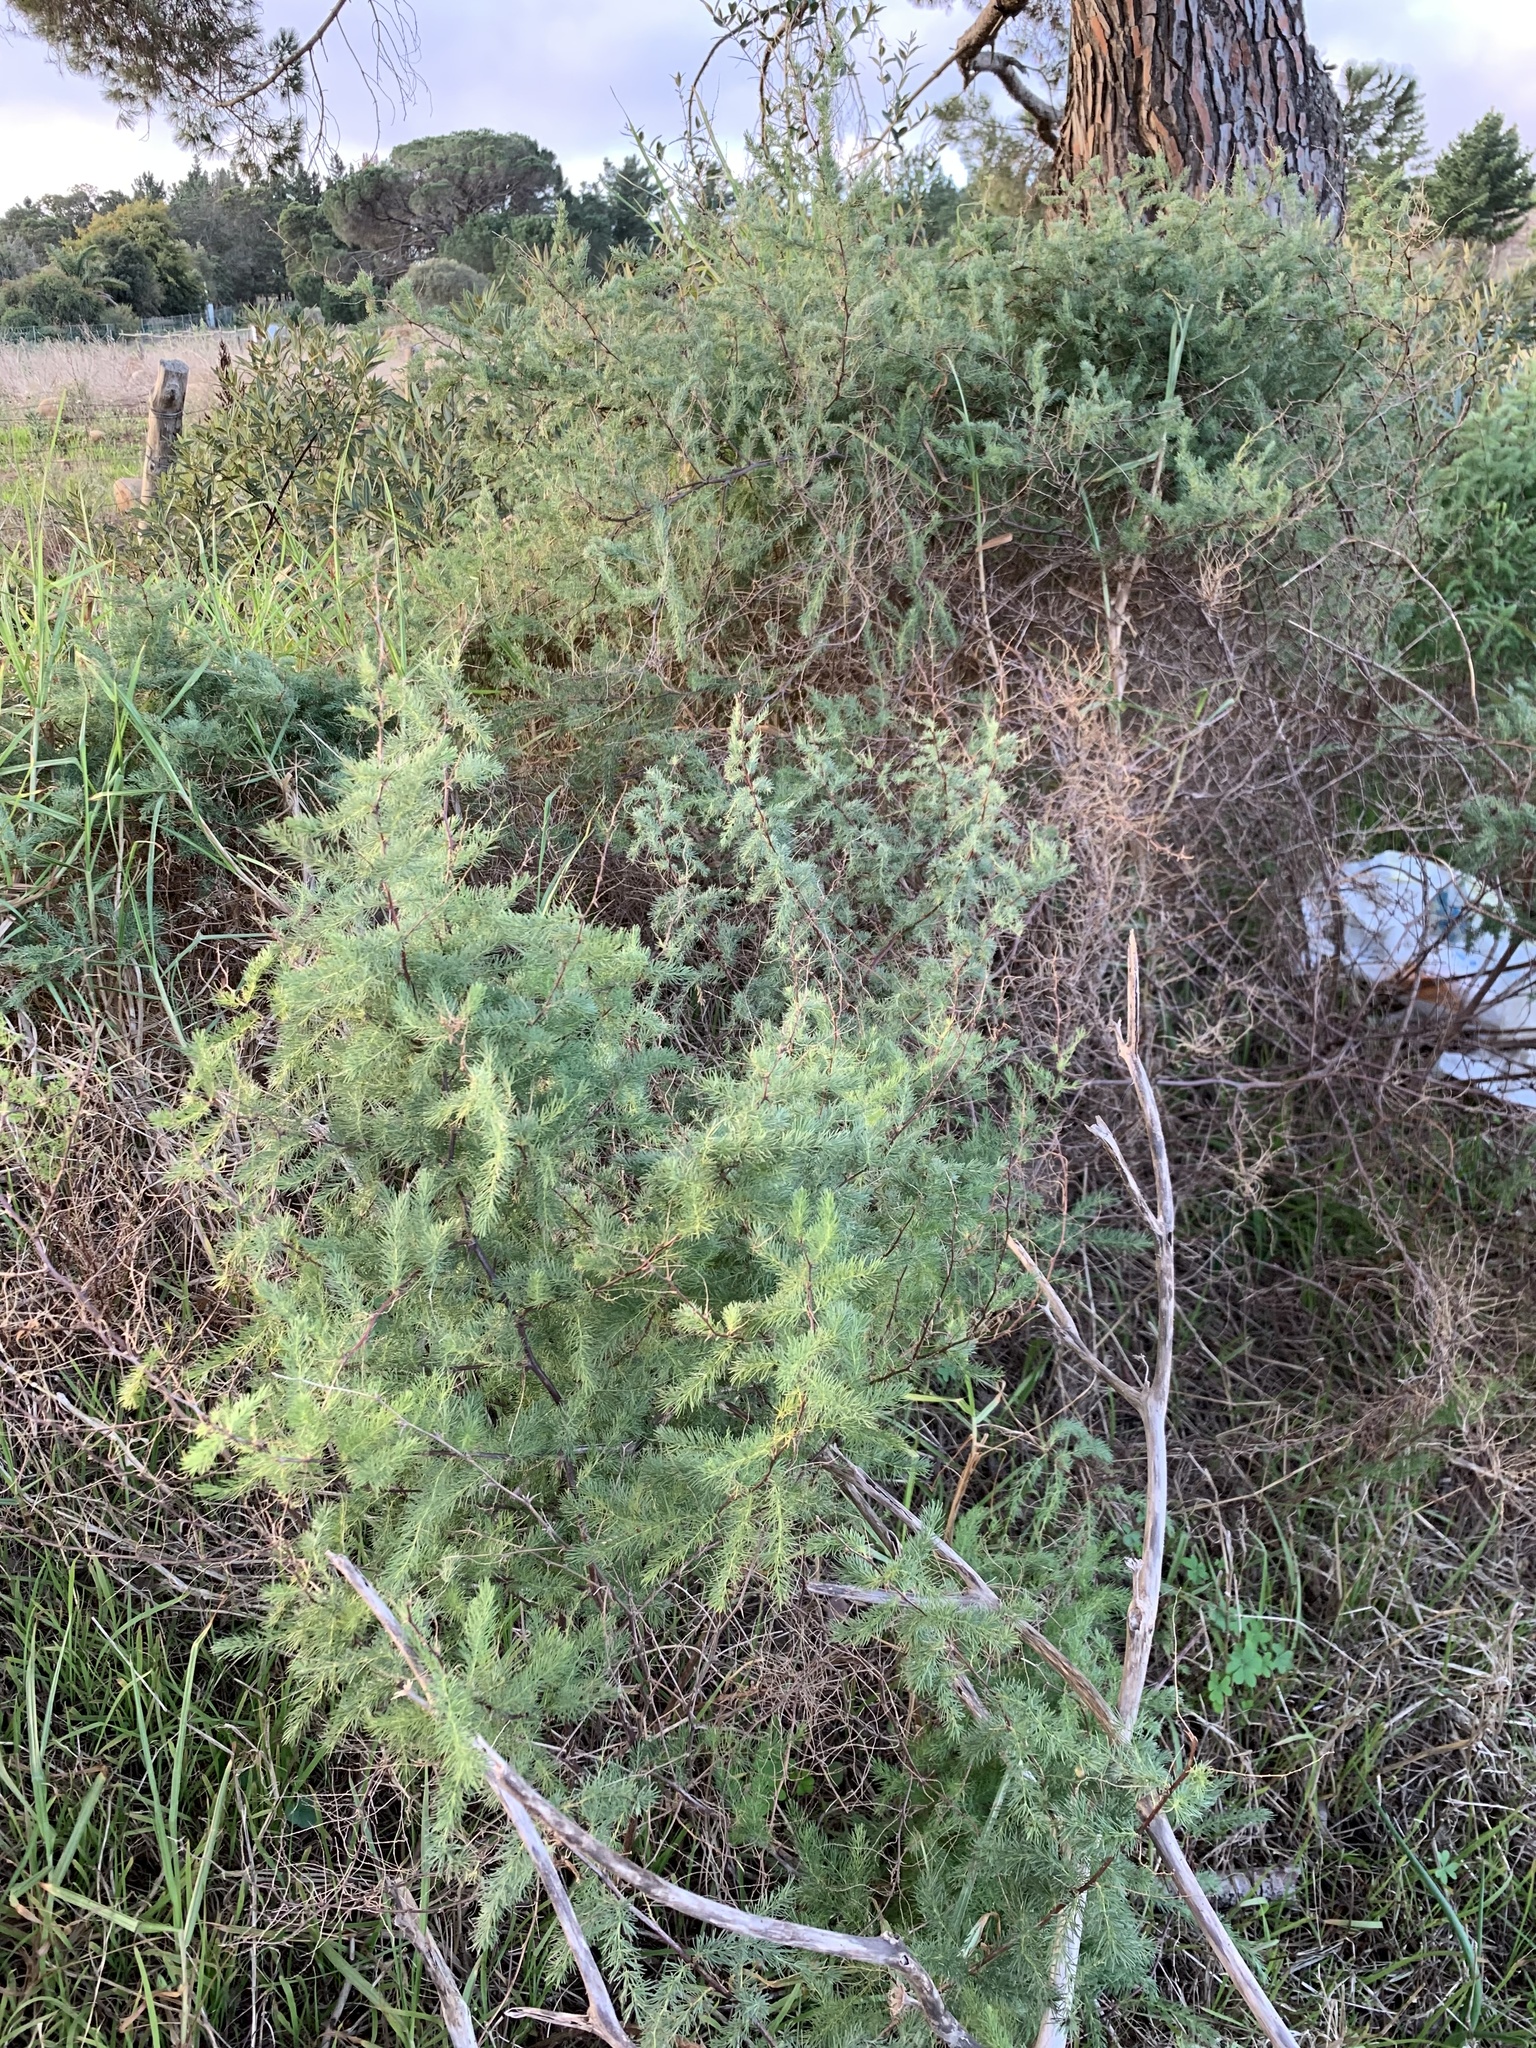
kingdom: Plantae
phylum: Tracheophyta
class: Liliopsida
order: Asparagales
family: Asparagaceae
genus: Asparagus
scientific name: Asparagus rubicundus
